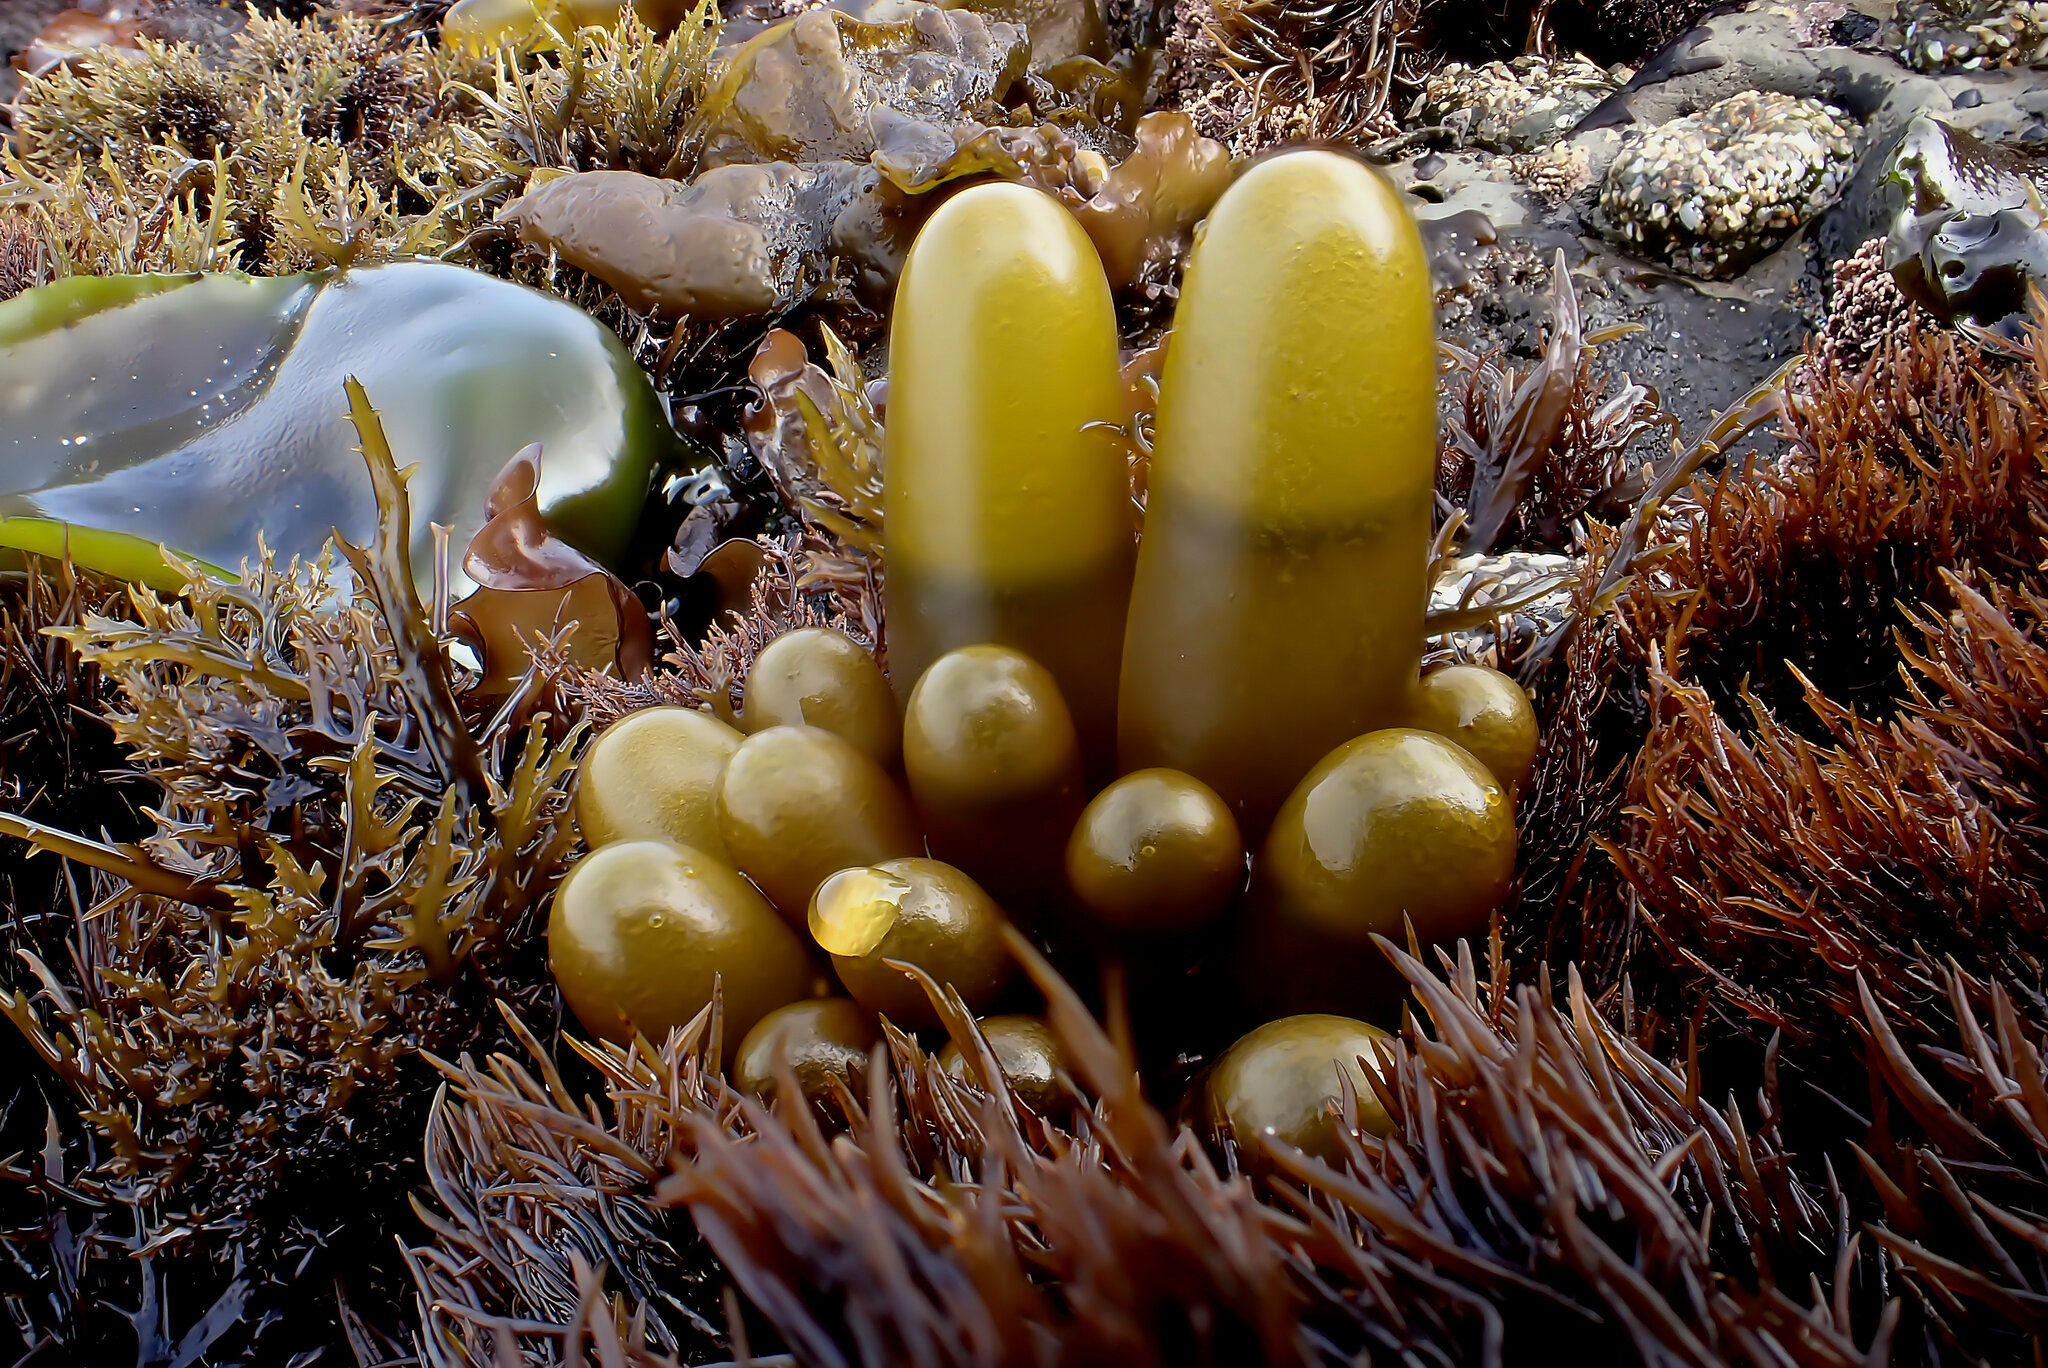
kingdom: Plantae
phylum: Rhodophyta
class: Florideophyceae
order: Palmariales
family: Palmariaceae
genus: Halosaccion
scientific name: Halosaccion glandiforme
